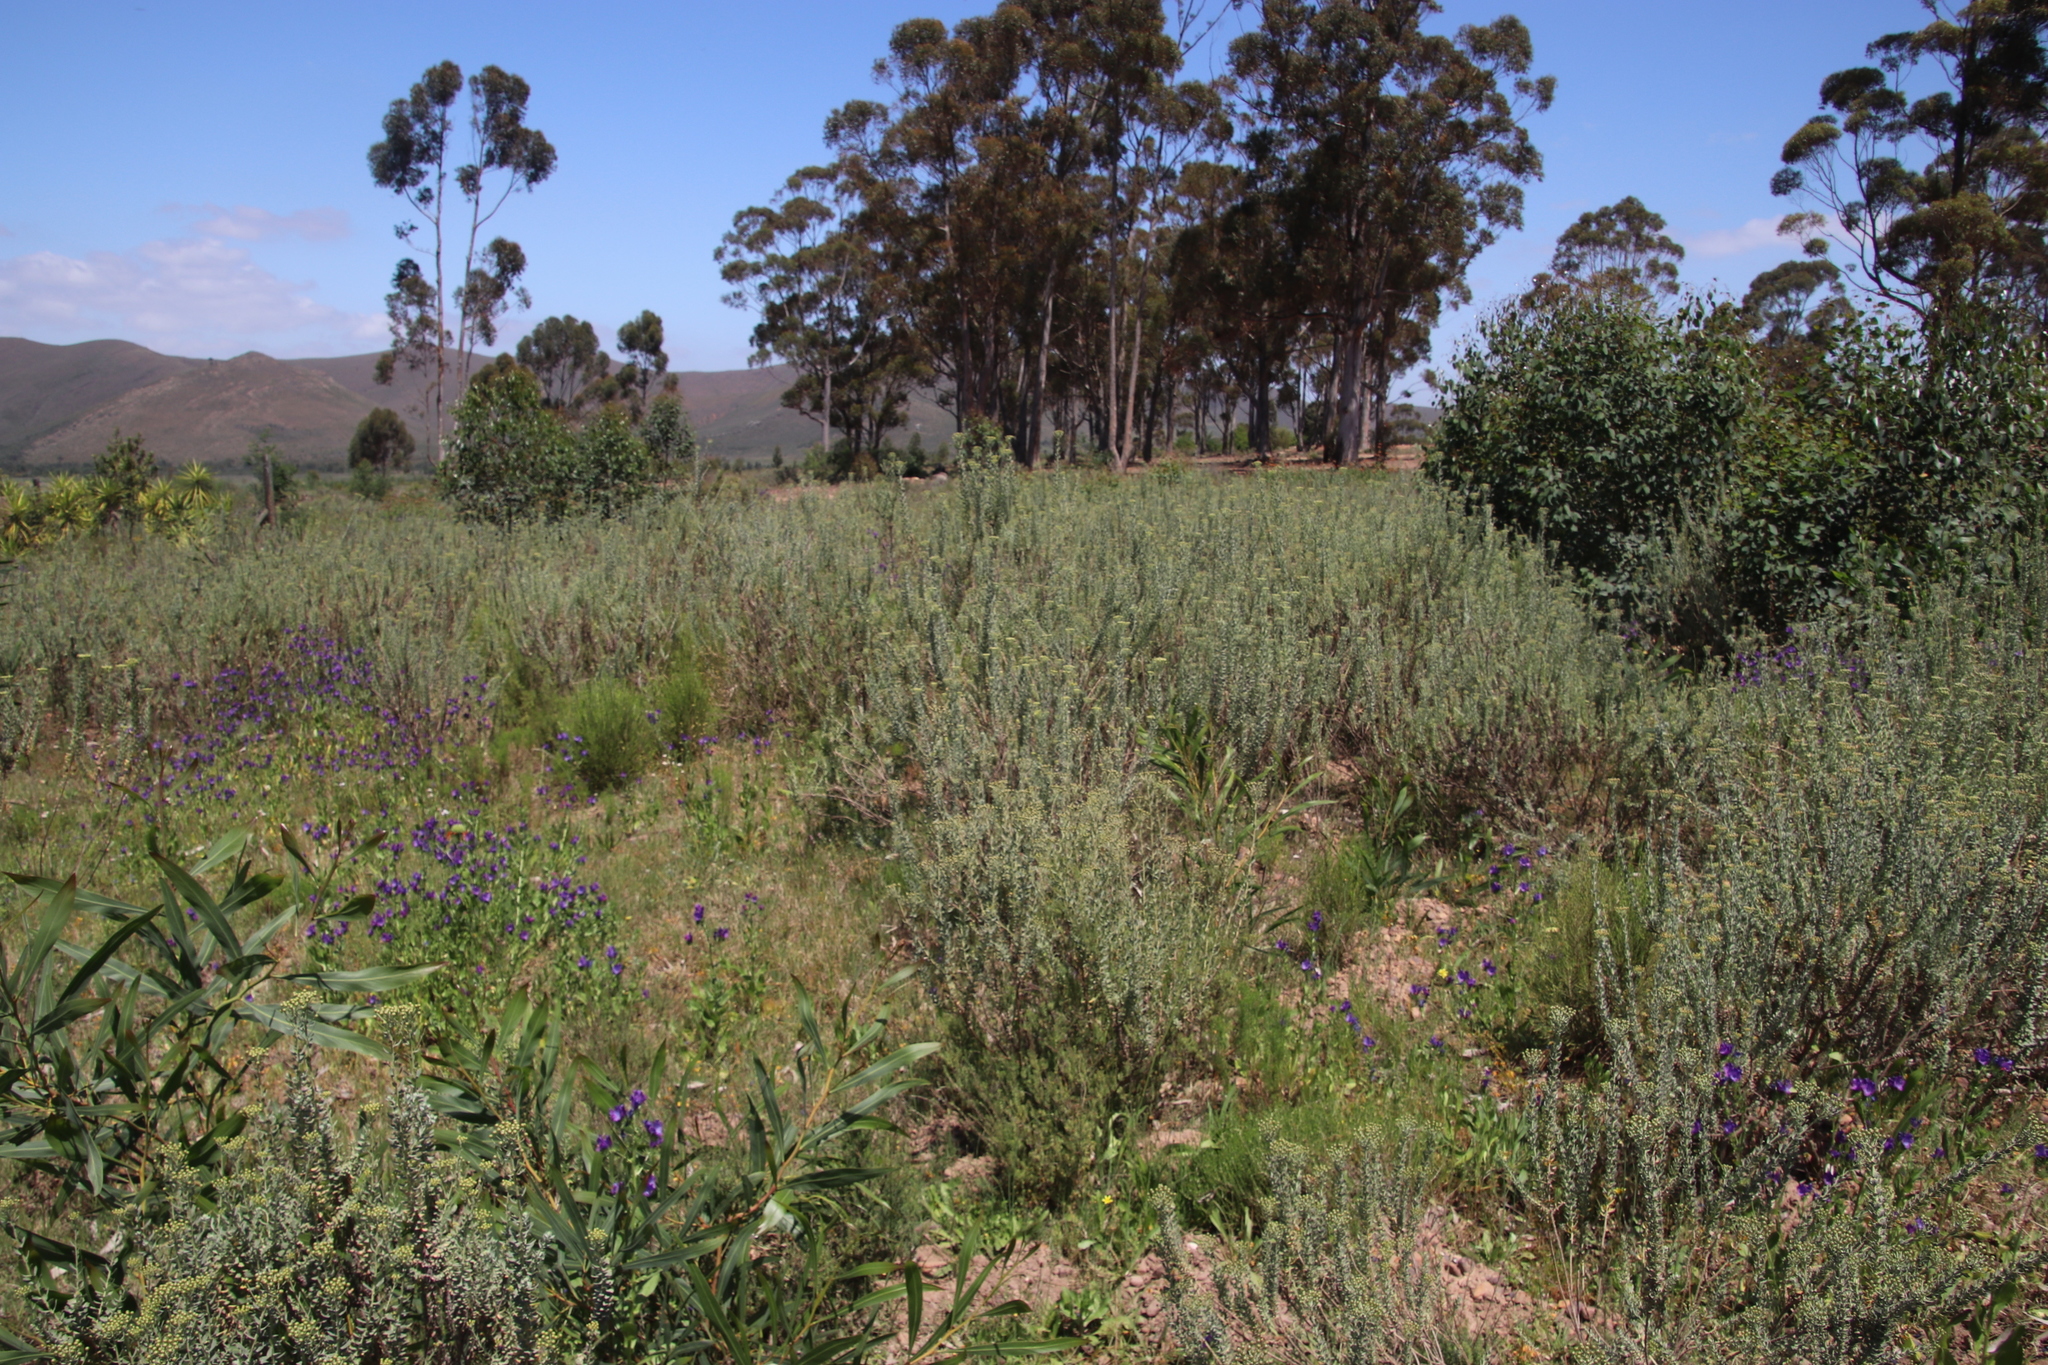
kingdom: Plantae
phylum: Tracheophyta
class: Magnoliopsida
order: Asterales
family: Asteraceae
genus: Athanasia
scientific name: Athanasia trifurcata
